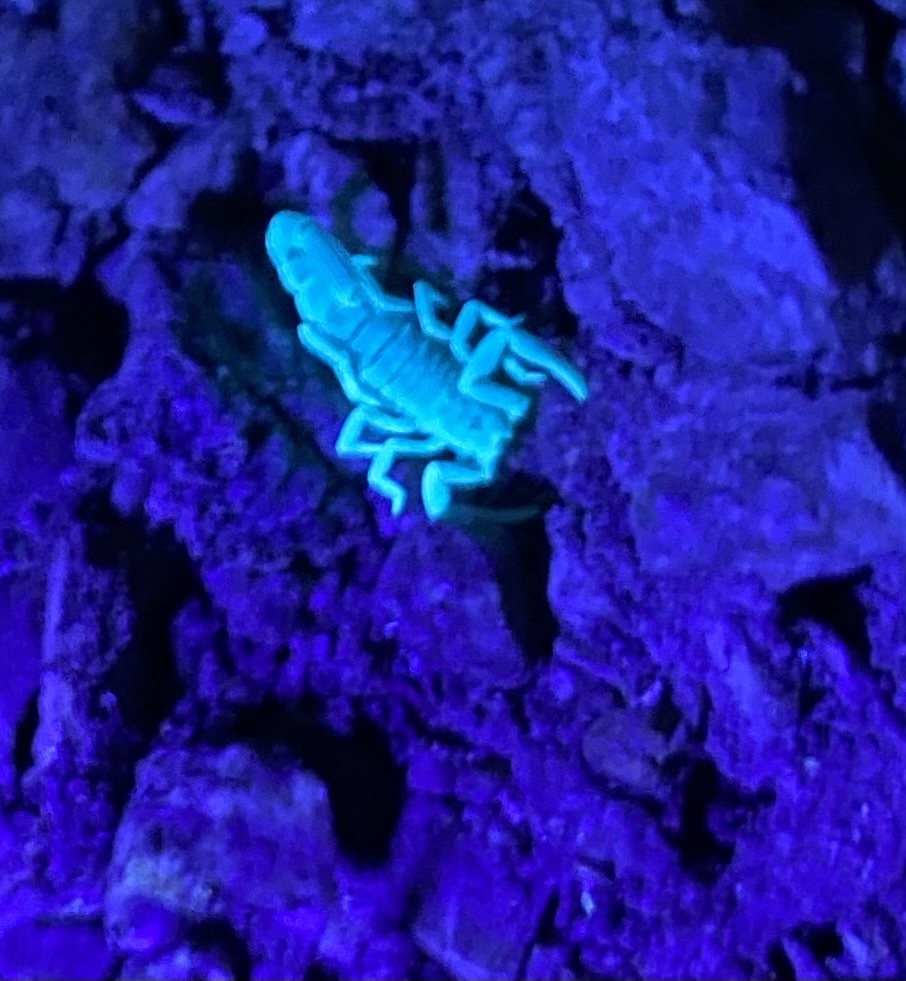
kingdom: Animalia
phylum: Arthropoda
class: Arachnida
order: Scorpiones
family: Vaejovidae
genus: Paravaejovis
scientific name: Paravaejovis spinigerus
